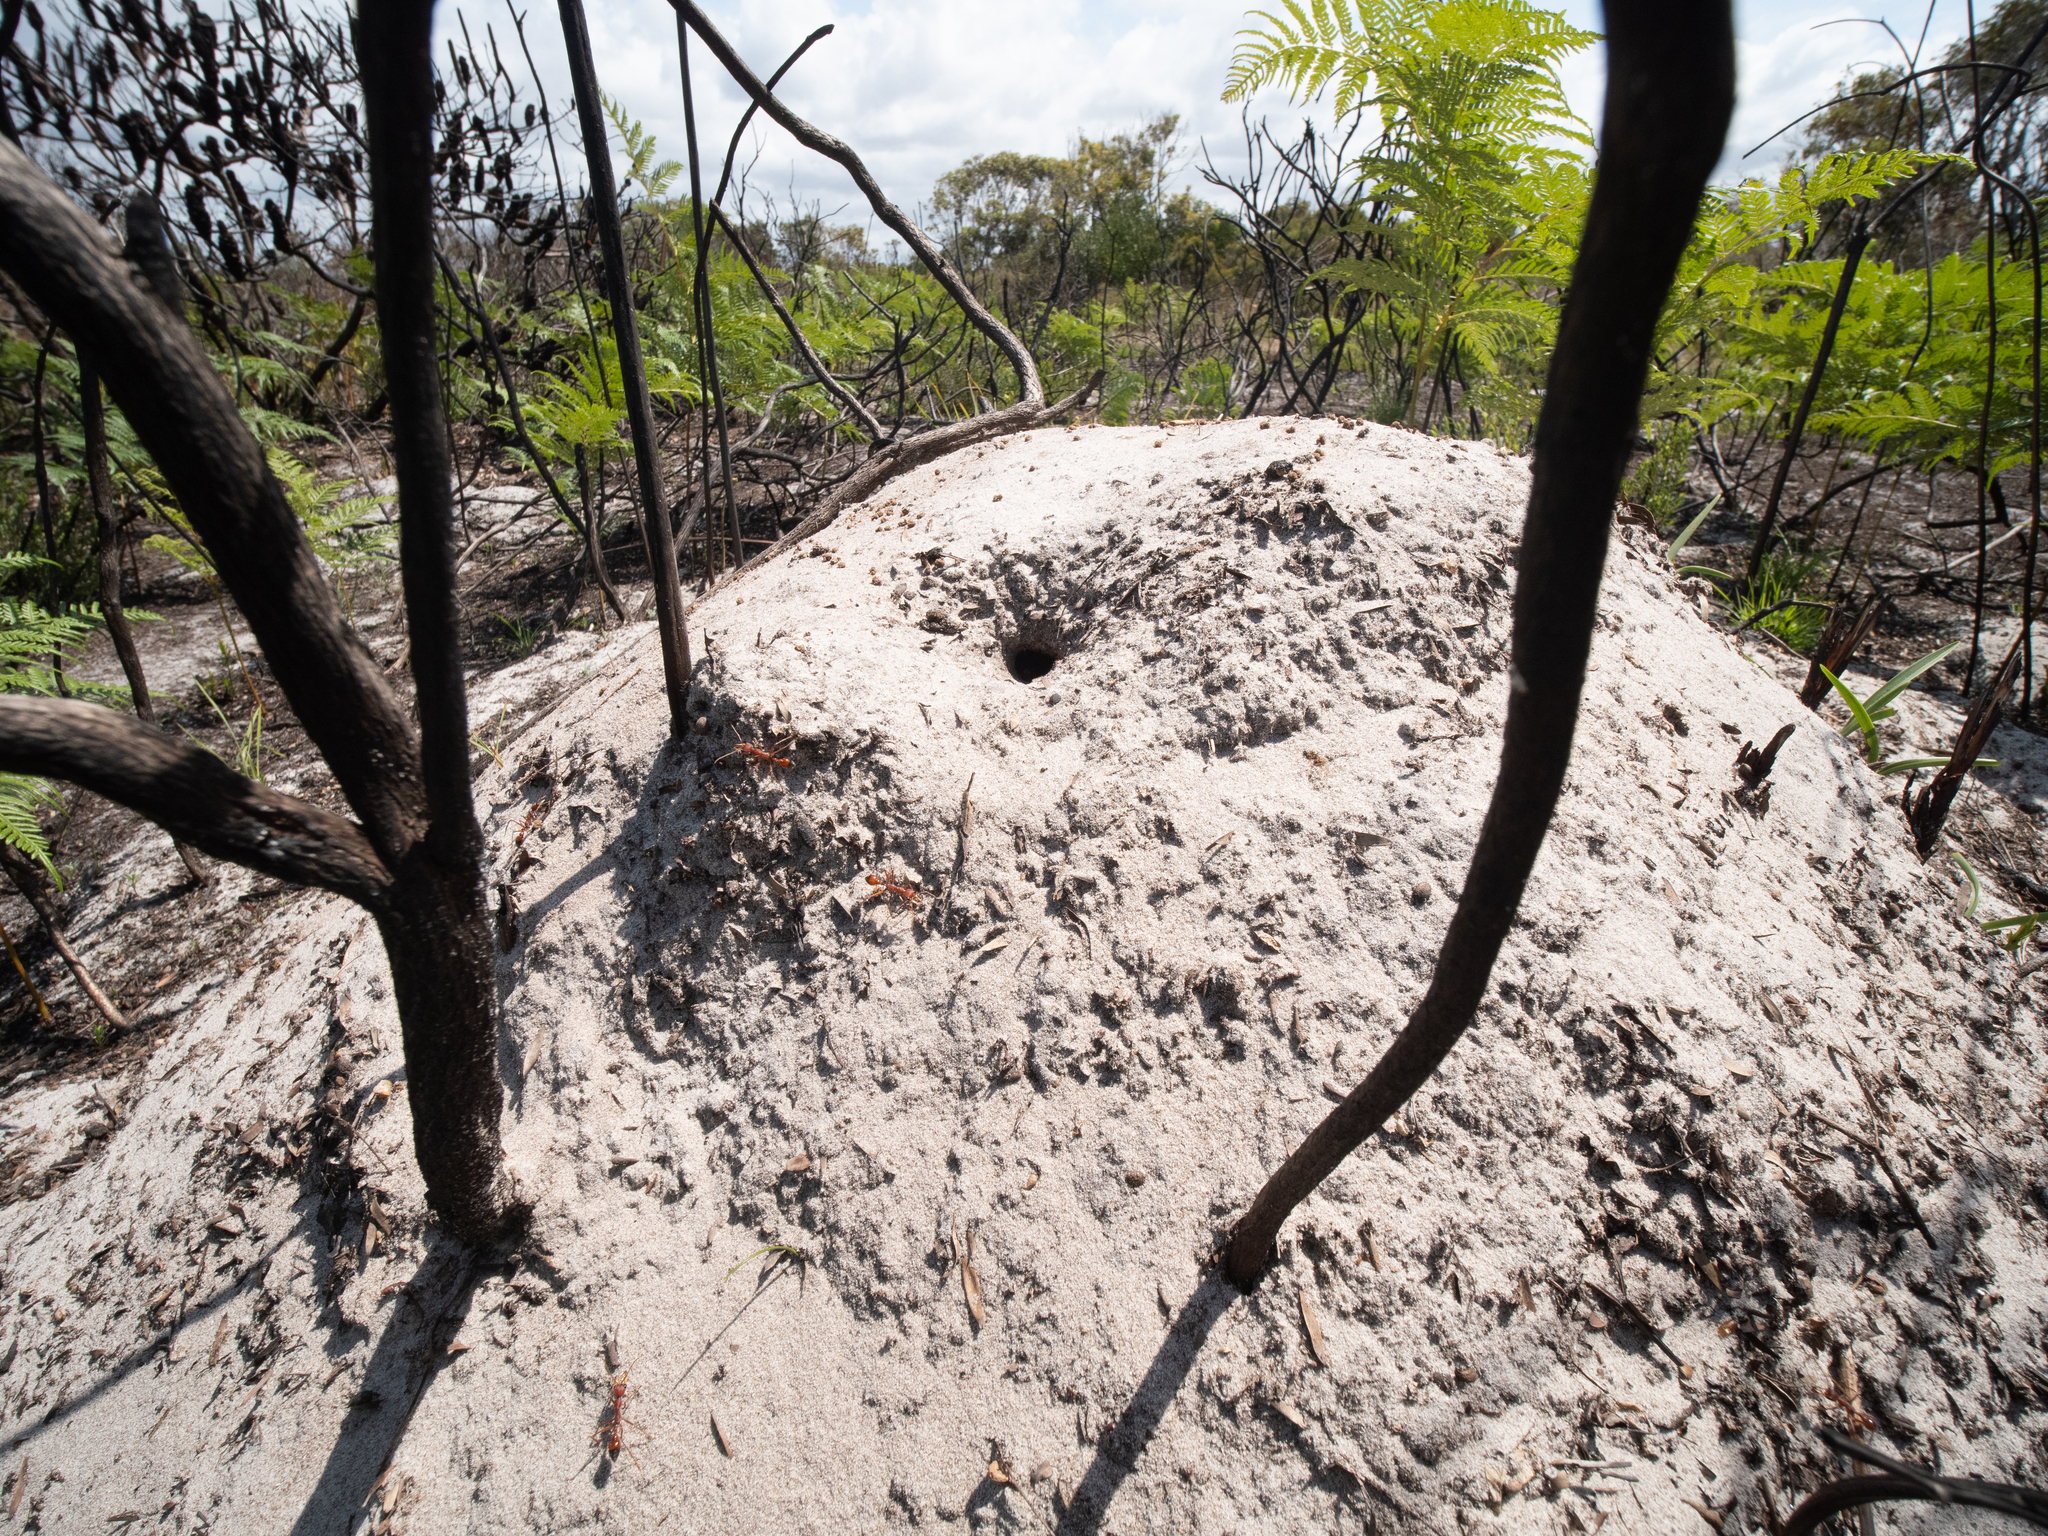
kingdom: Animalia
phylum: Arthropoda
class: Insecta
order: Hymenoptera
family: Formicidae
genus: Myrmecia
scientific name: Myrmecia gulosa
